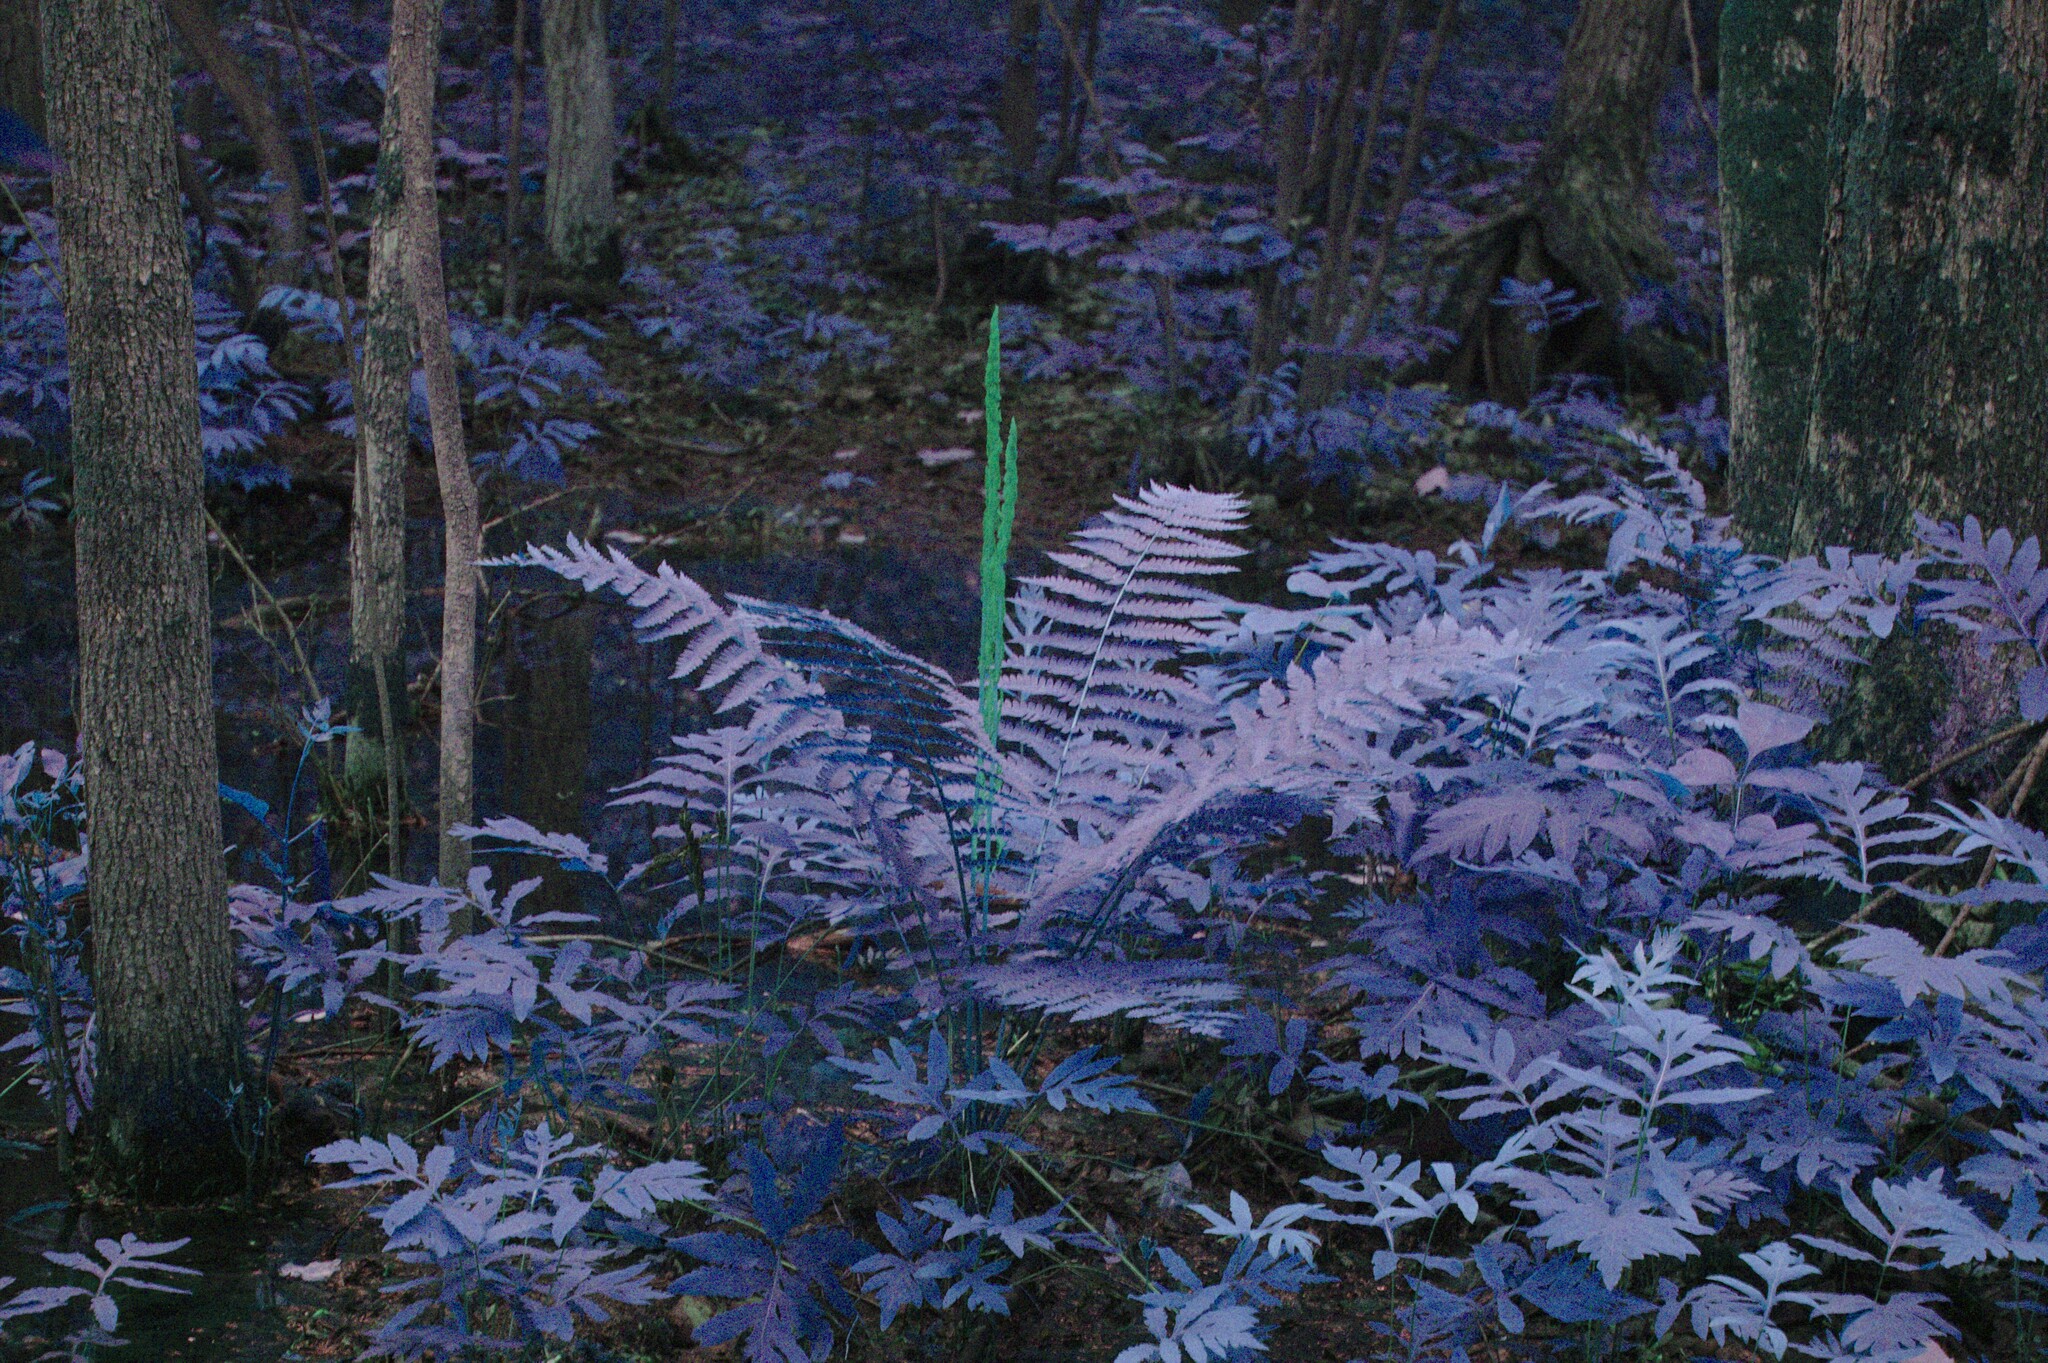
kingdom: Plantae
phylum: Tracheophyta
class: Polypodiopsida
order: Osmundales
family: Osmundaceae
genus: Osmundastrum
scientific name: Osmundastrum cinnamomeum
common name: Cinnamon fern
